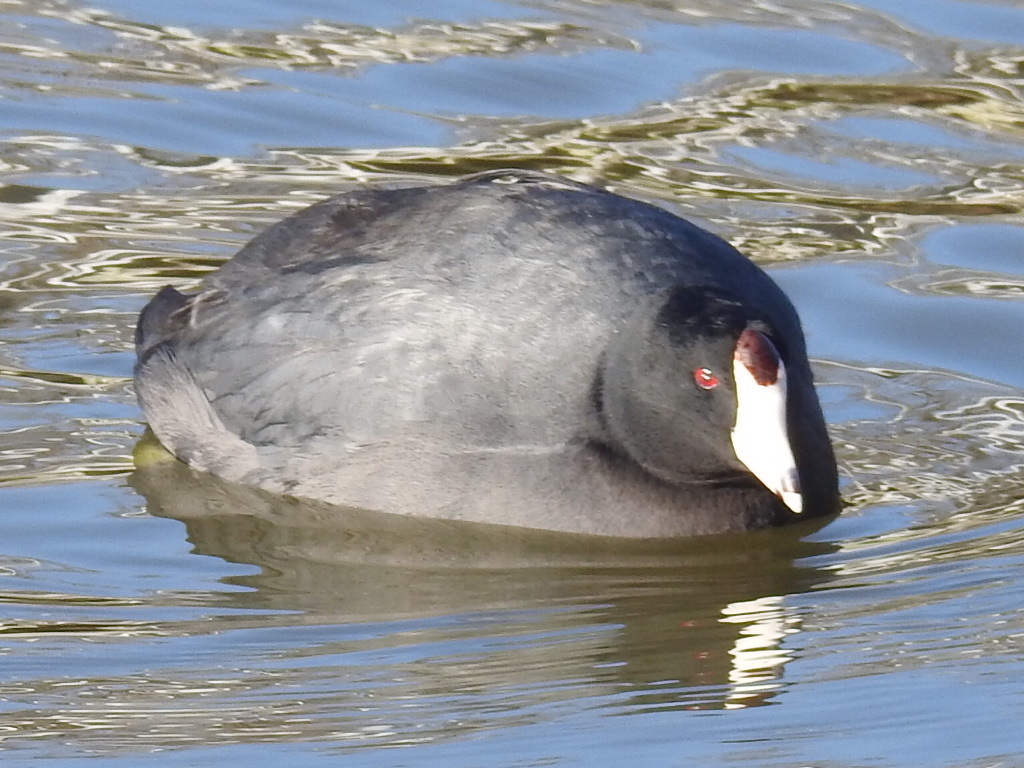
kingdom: Animalia
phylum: Chordata
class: Aves
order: Gruiformes
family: Rallidae
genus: Fulica
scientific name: Fulica americana
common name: American coot
